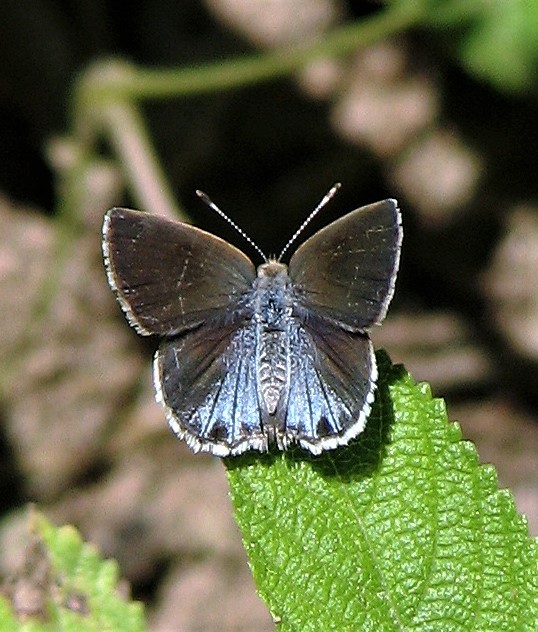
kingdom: Animalia
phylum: Arthropoda
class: Insecta
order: Lepidoptera
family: Lycaenidae
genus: Strymon
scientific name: Strymon bazochii
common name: Lantana scrub-hairstreak
